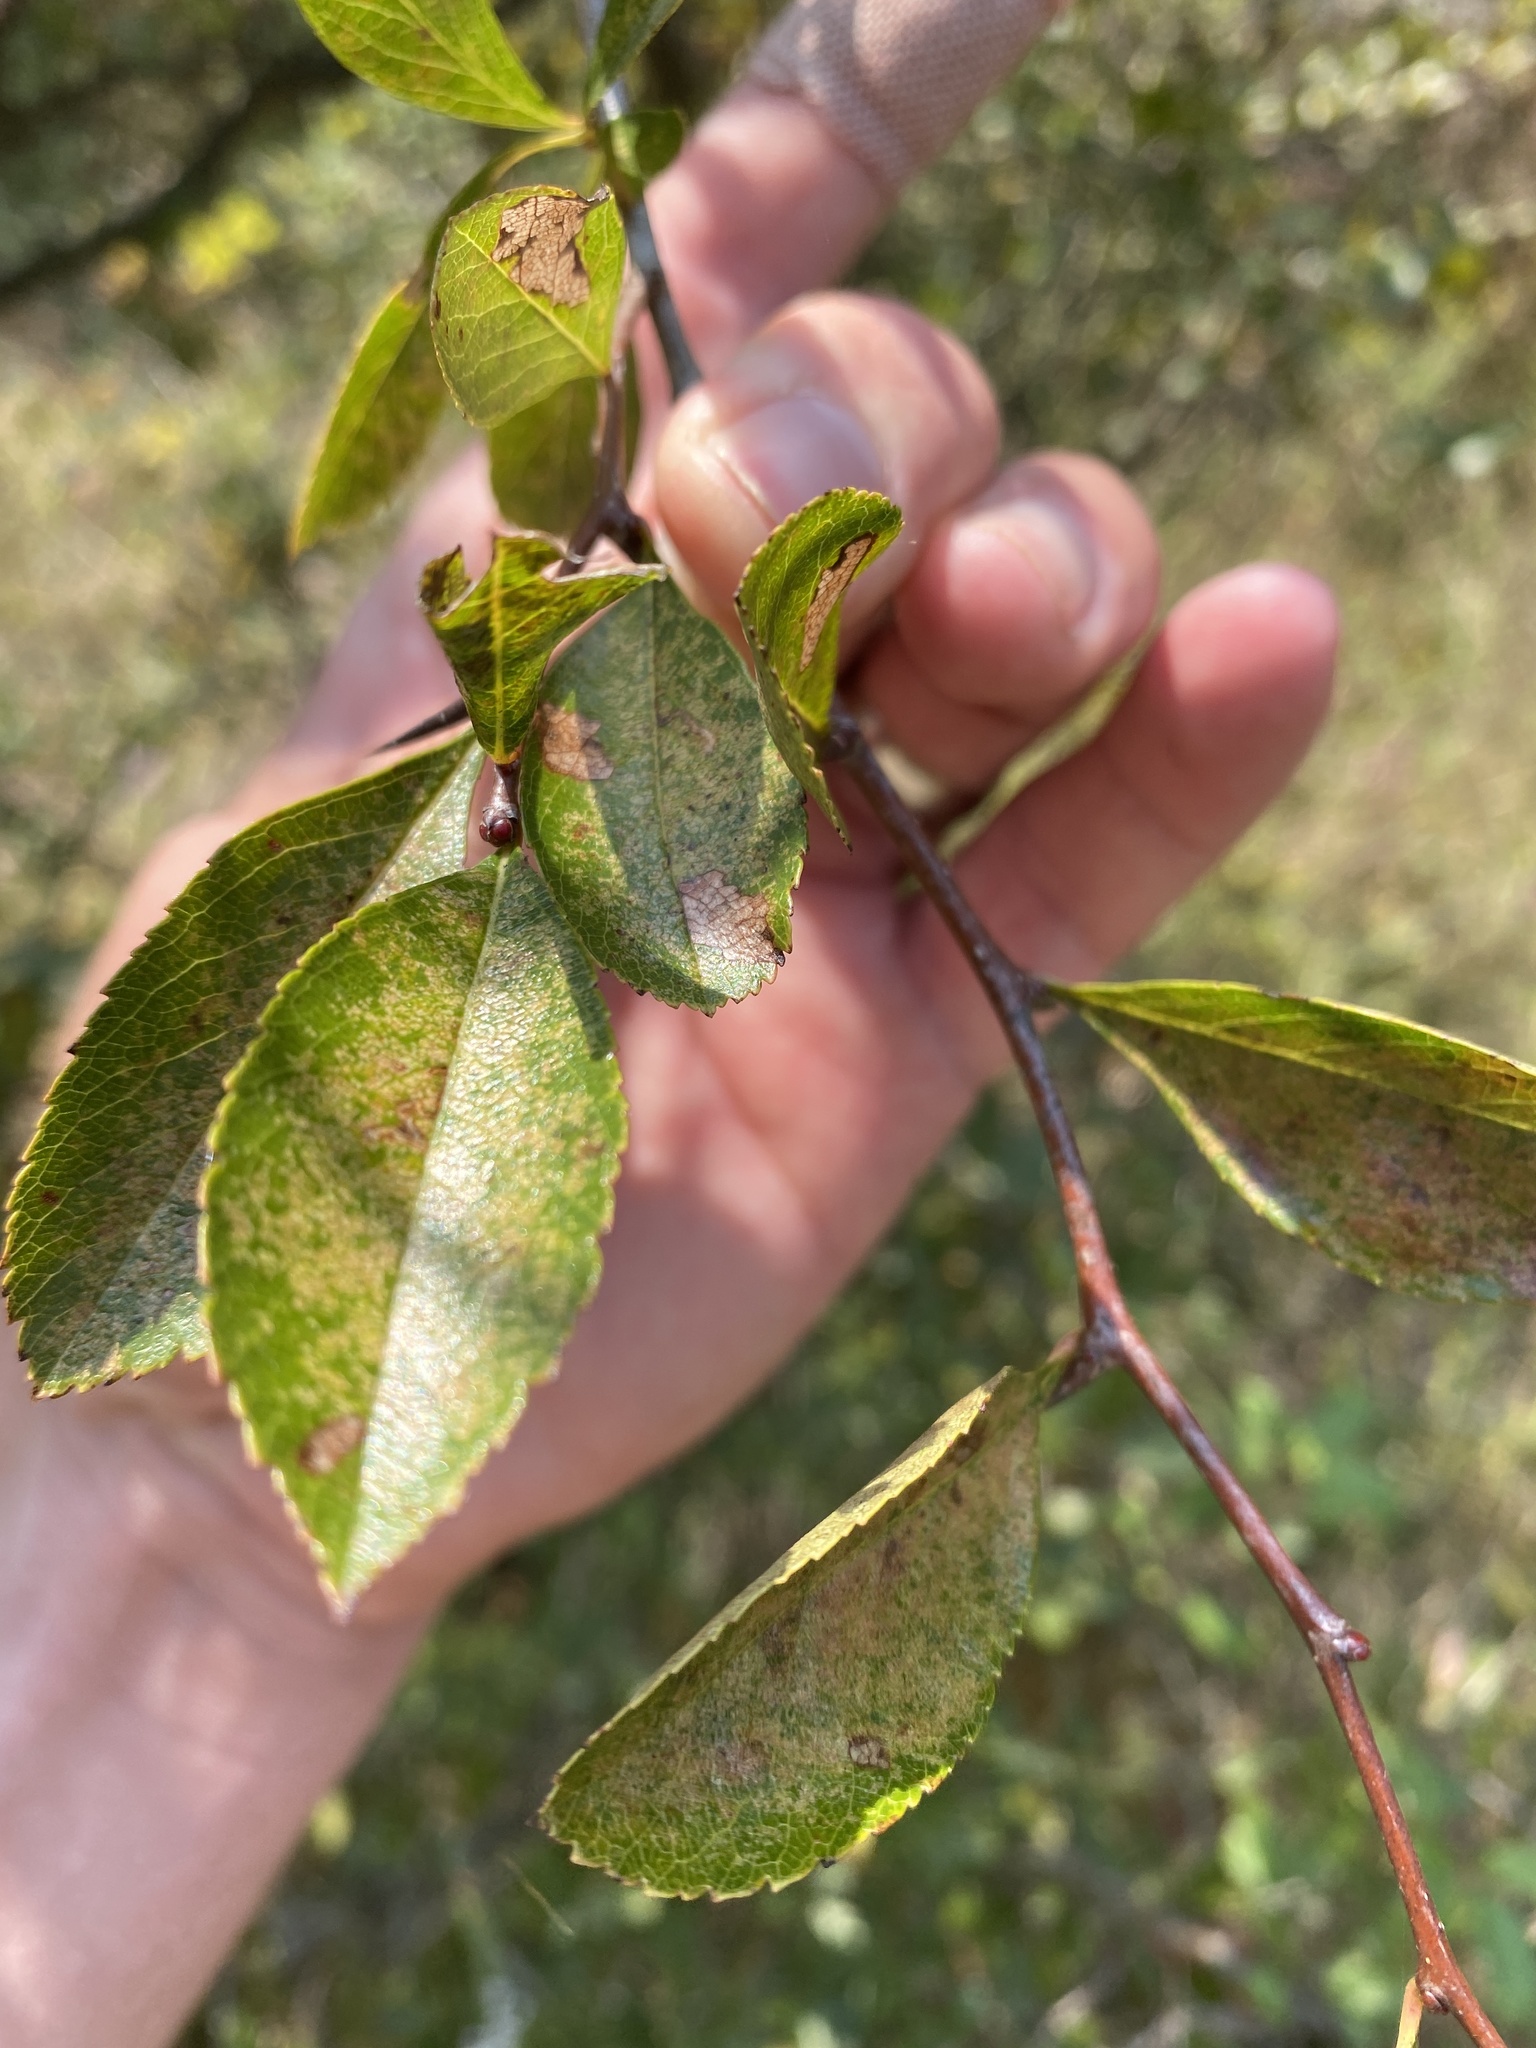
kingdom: Plantae
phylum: Tracheophyta
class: Magnoliopsida
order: Rosales
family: Rosaceae
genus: Crataegus
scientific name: Crataegus crus-galli
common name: Cockspurthorn
